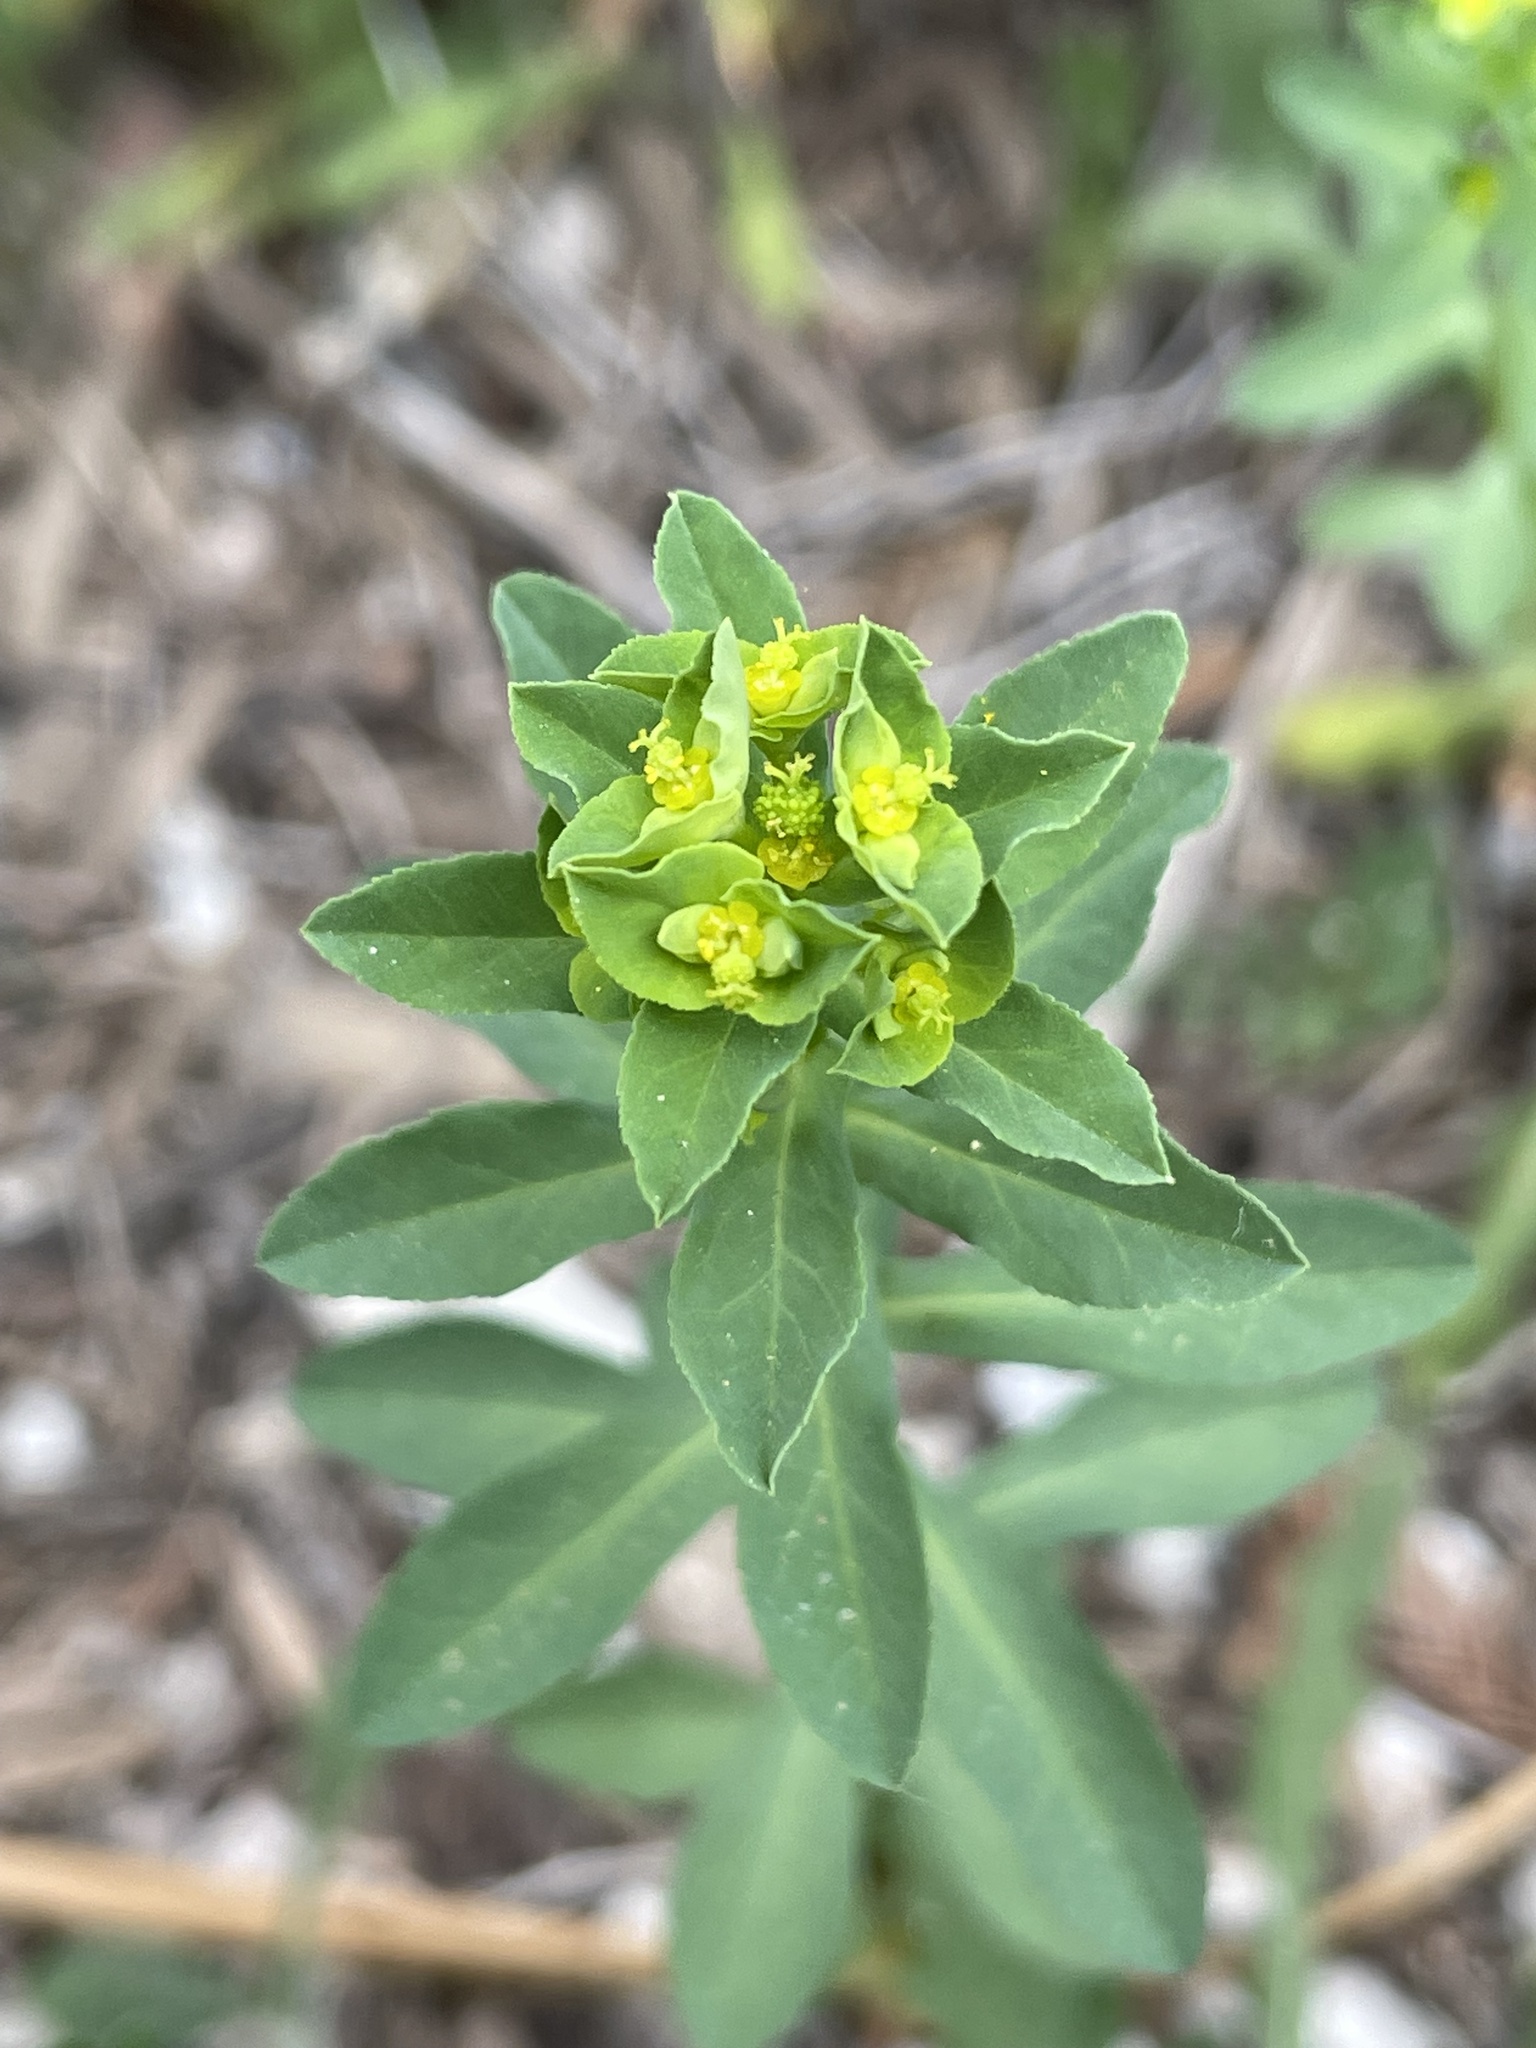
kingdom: Plantae
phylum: Tracheophyta
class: Magnoliopsida
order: Malpighiales
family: Euphorbiaceae
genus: Euphorbia
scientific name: Euphorbia spathulata
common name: Blunt spurge
